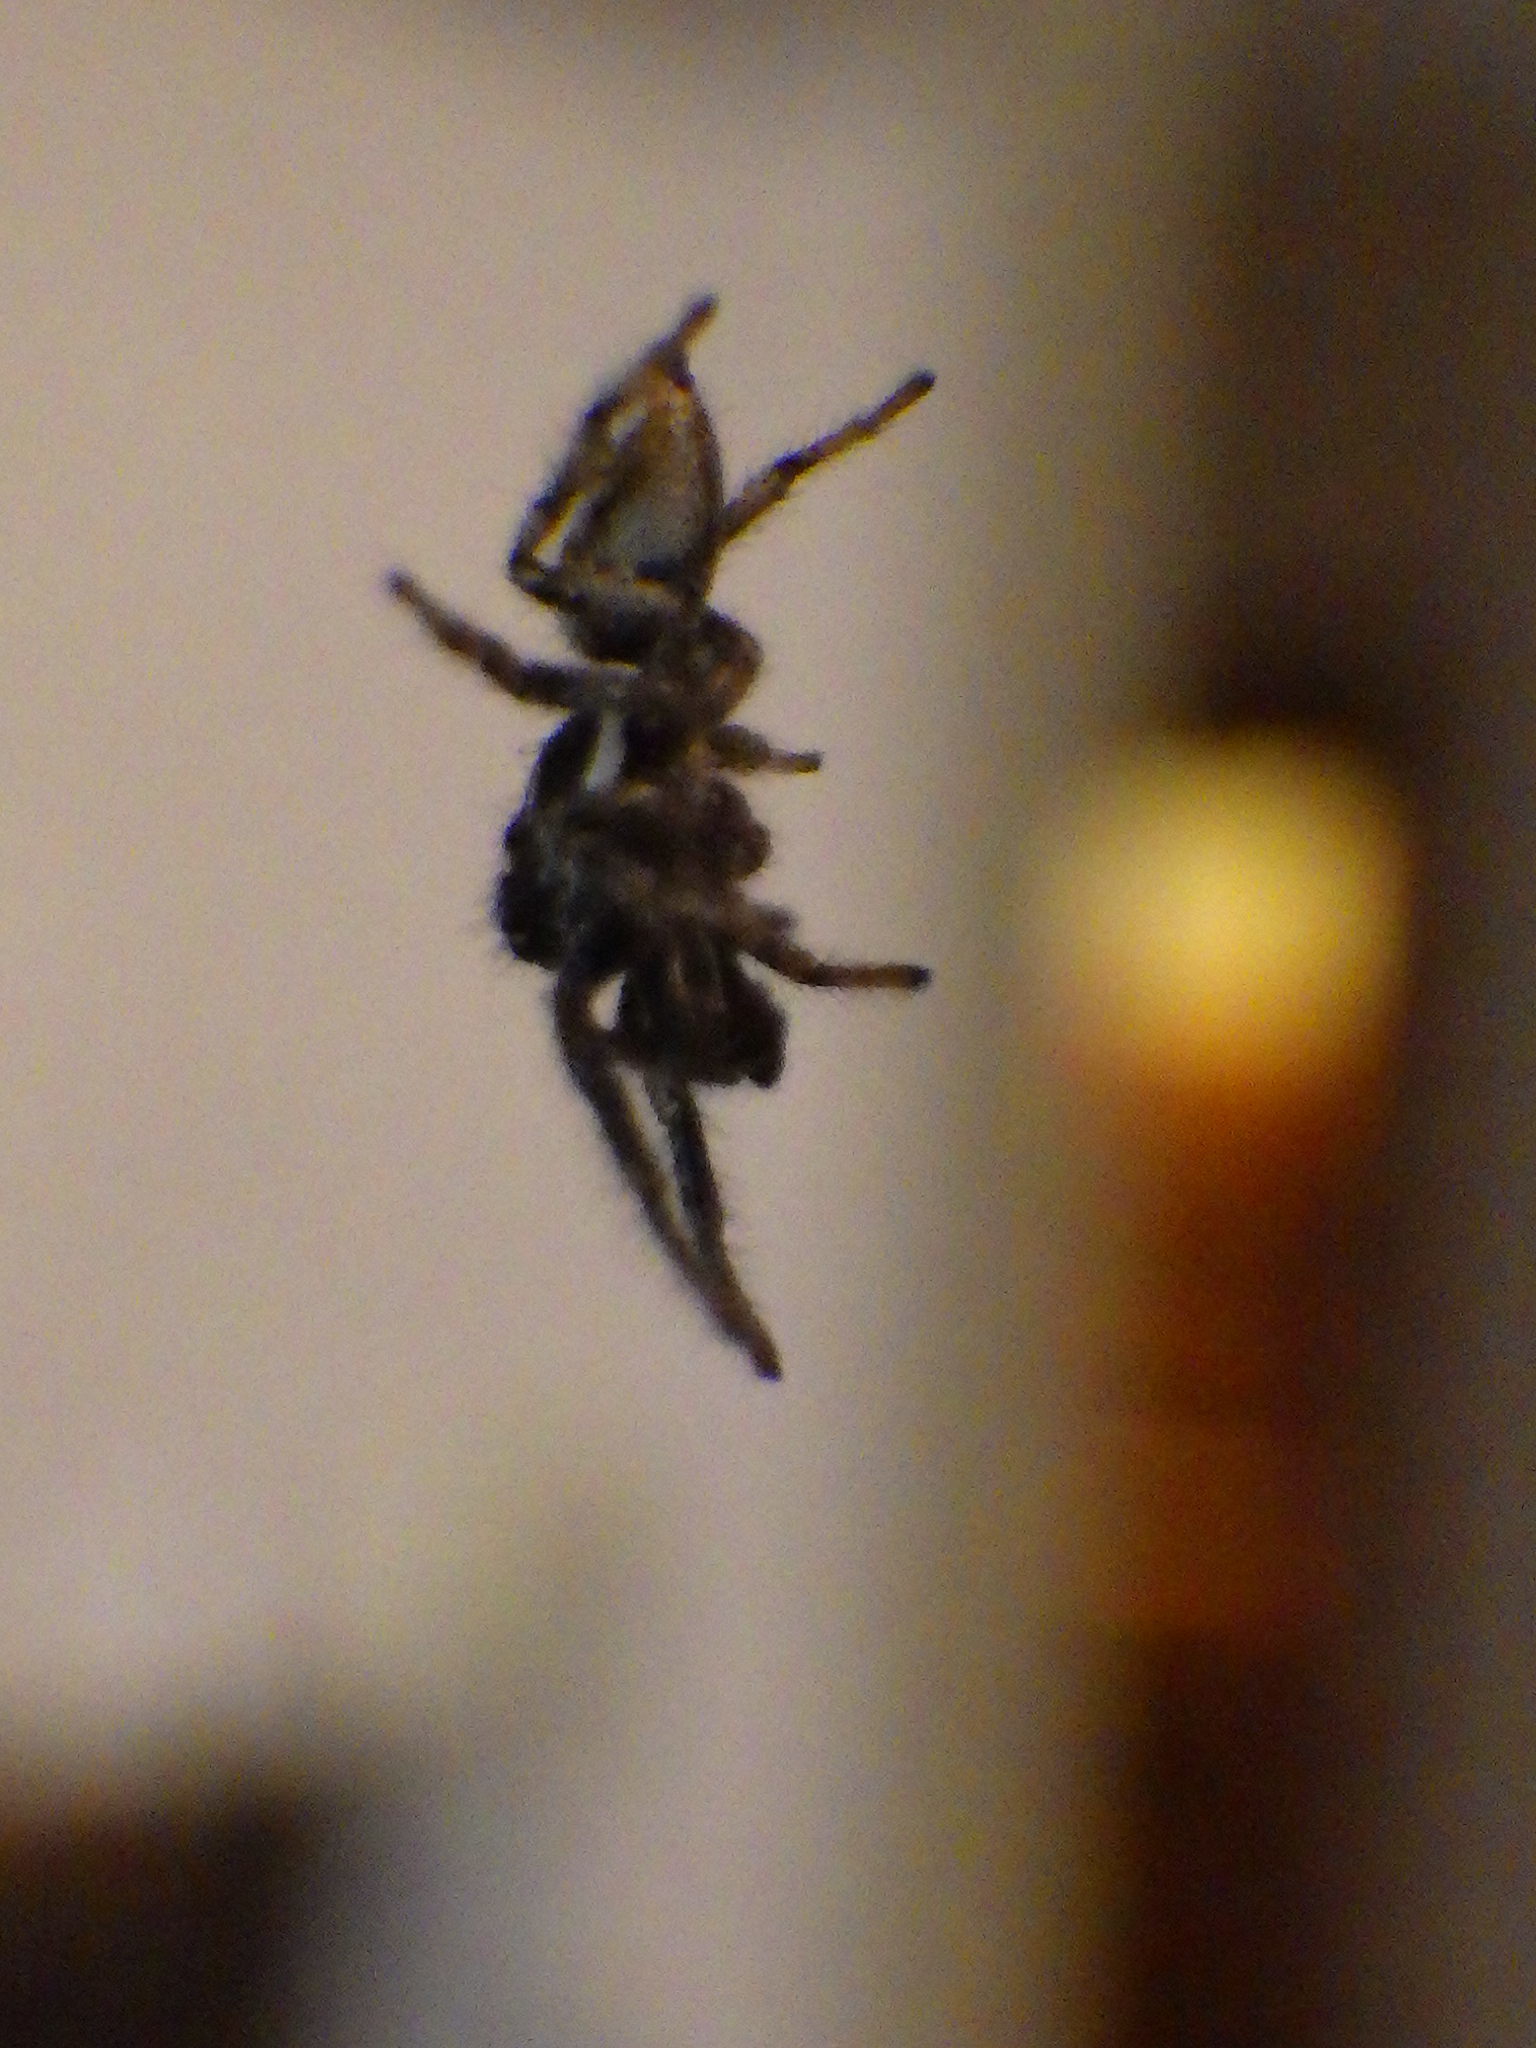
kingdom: Animalia
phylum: Arthropoda
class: Arachnida
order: Araneae
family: Salticidae
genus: Salticus
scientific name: Salticus scenicus
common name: Zebra jumper
